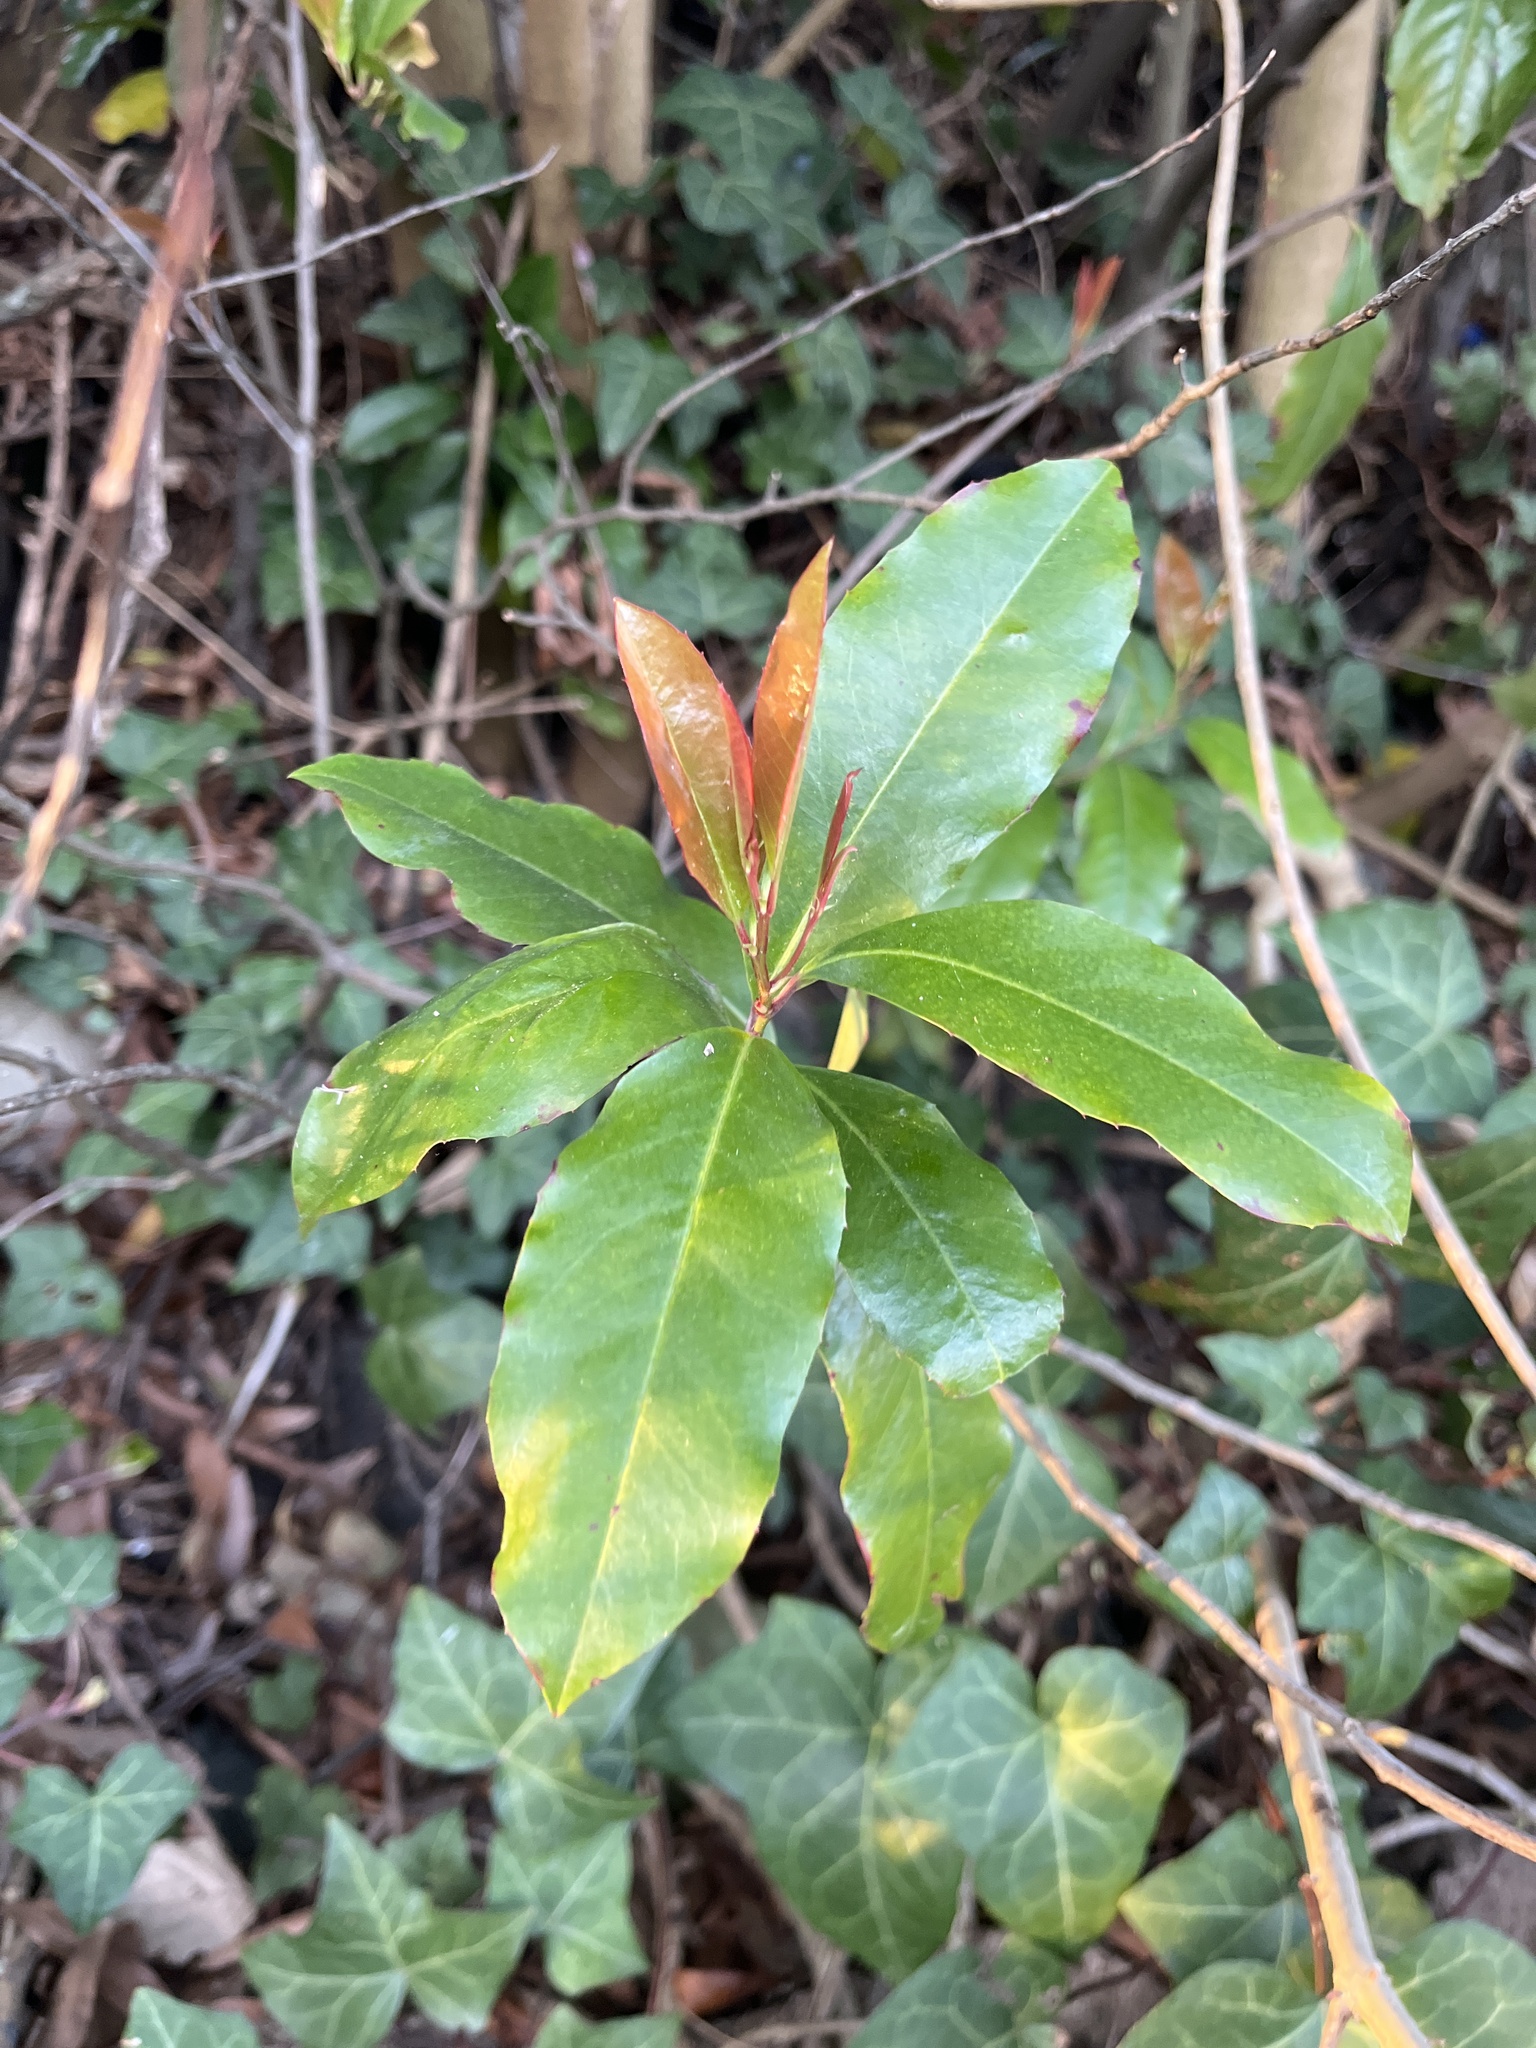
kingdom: Plantae
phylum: Tracheophyta
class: Magnoliopsida
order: Rosales
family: Rosaceae
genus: Prunus
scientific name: Prunus caroliniana
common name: Carolina laurel cherry
